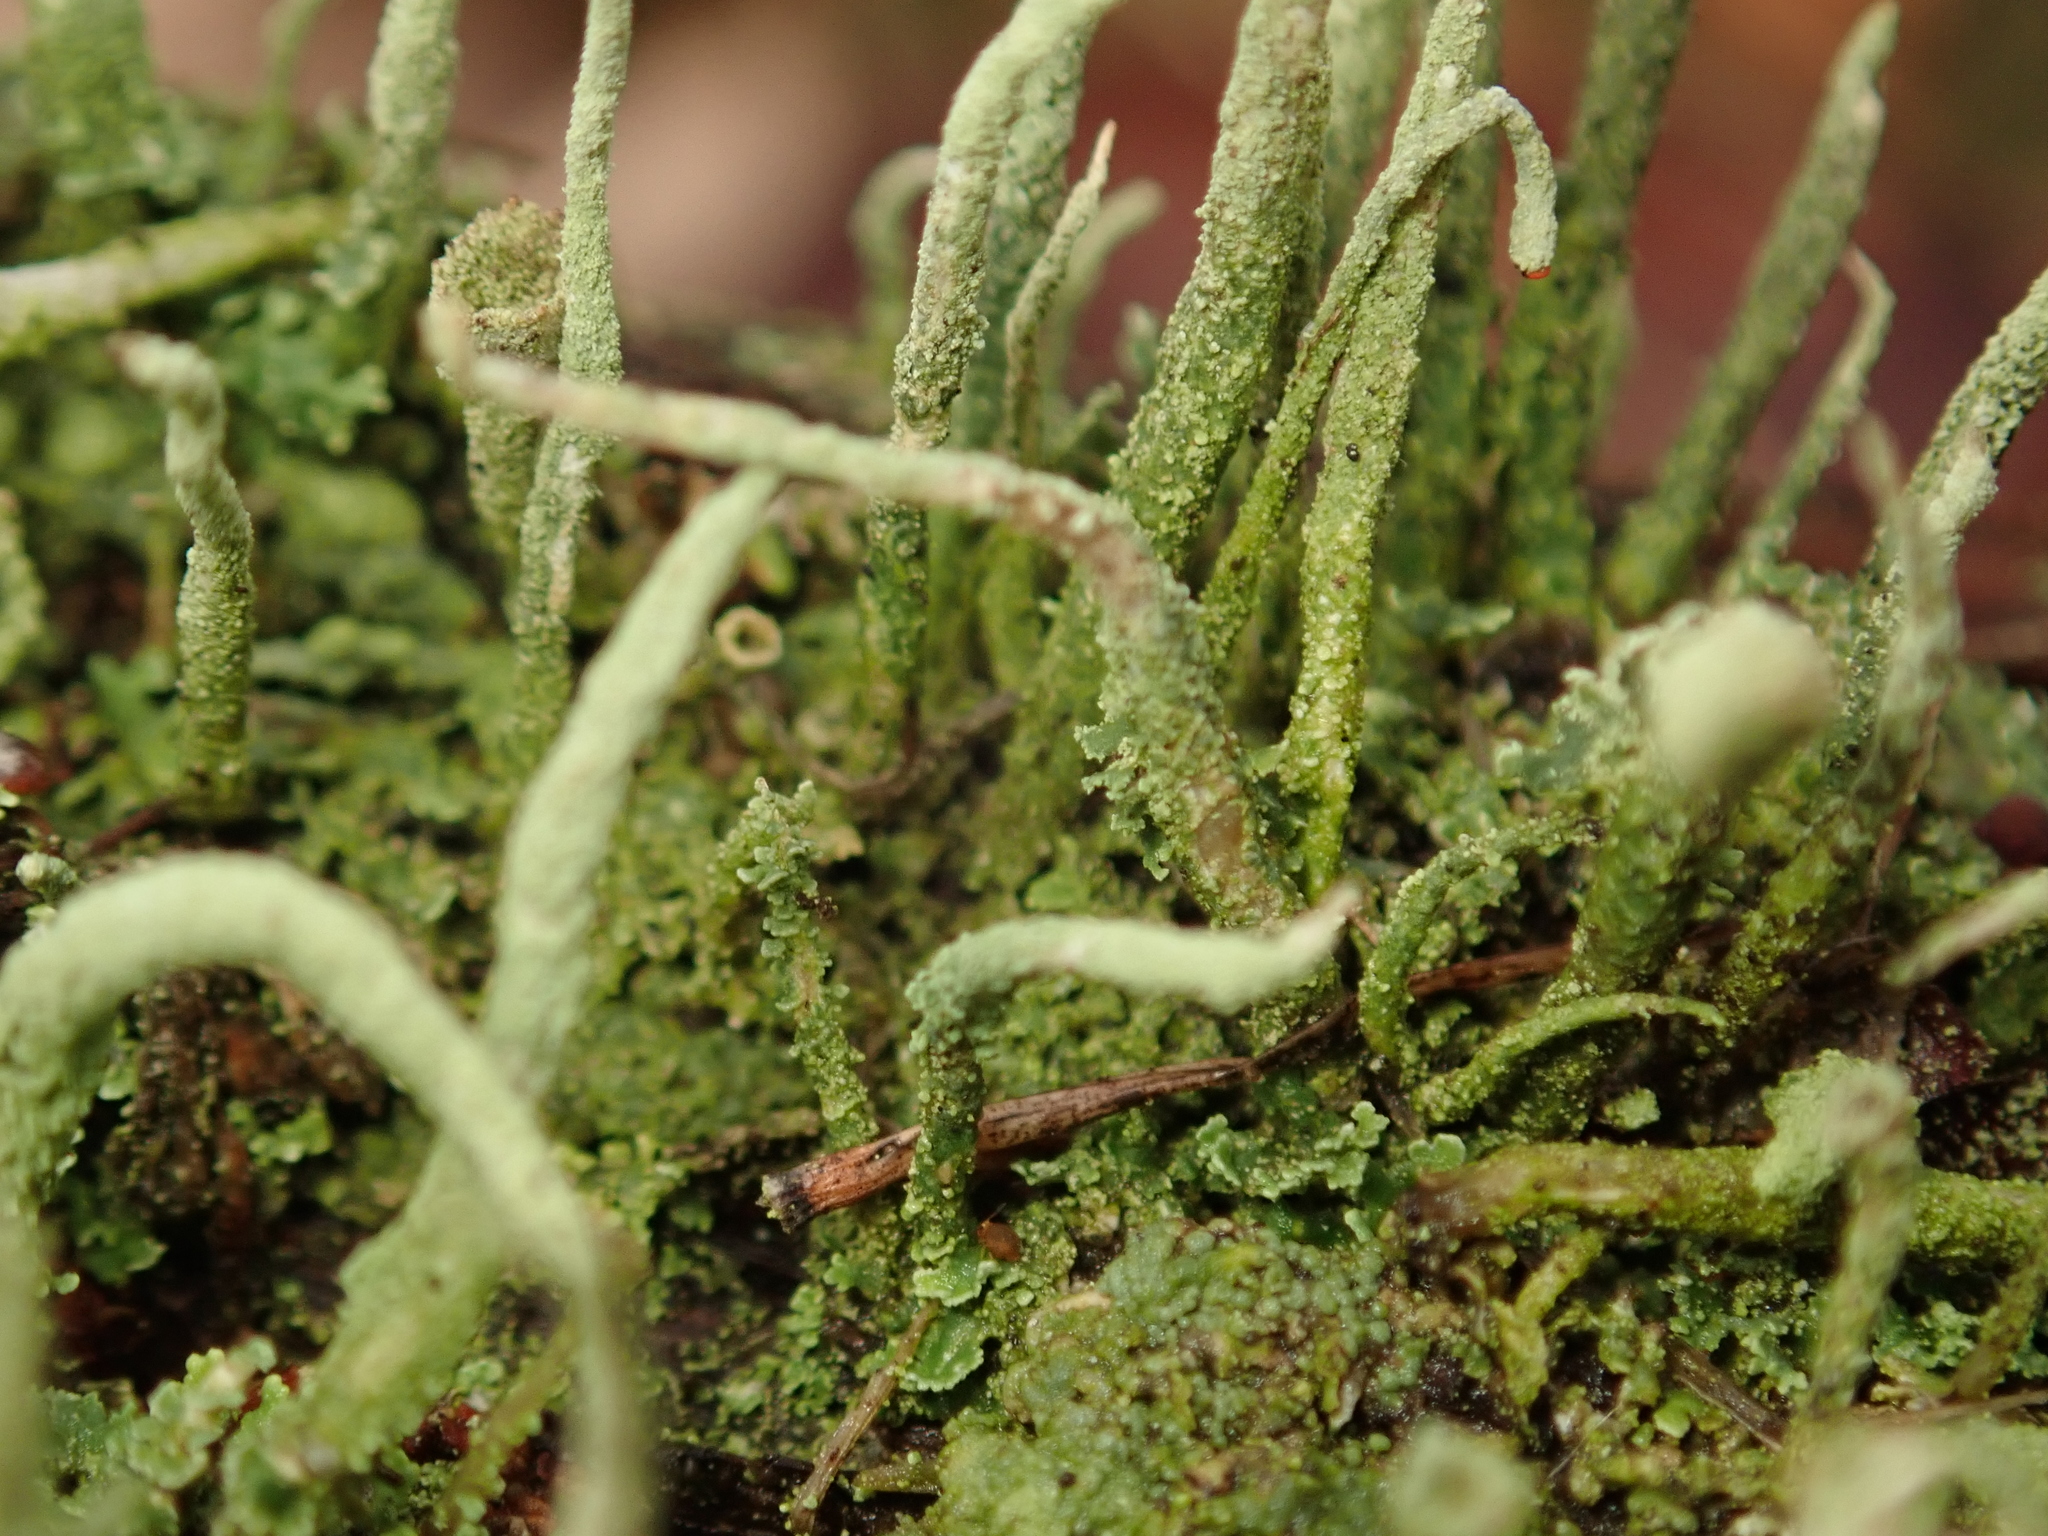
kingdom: Fungi
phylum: Ascomycota
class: Lecanoromycetes
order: Lecanorales
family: Cladoniaceae
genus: Cladonia
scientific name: Cladonia coniocraea
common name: Common powderhorn
